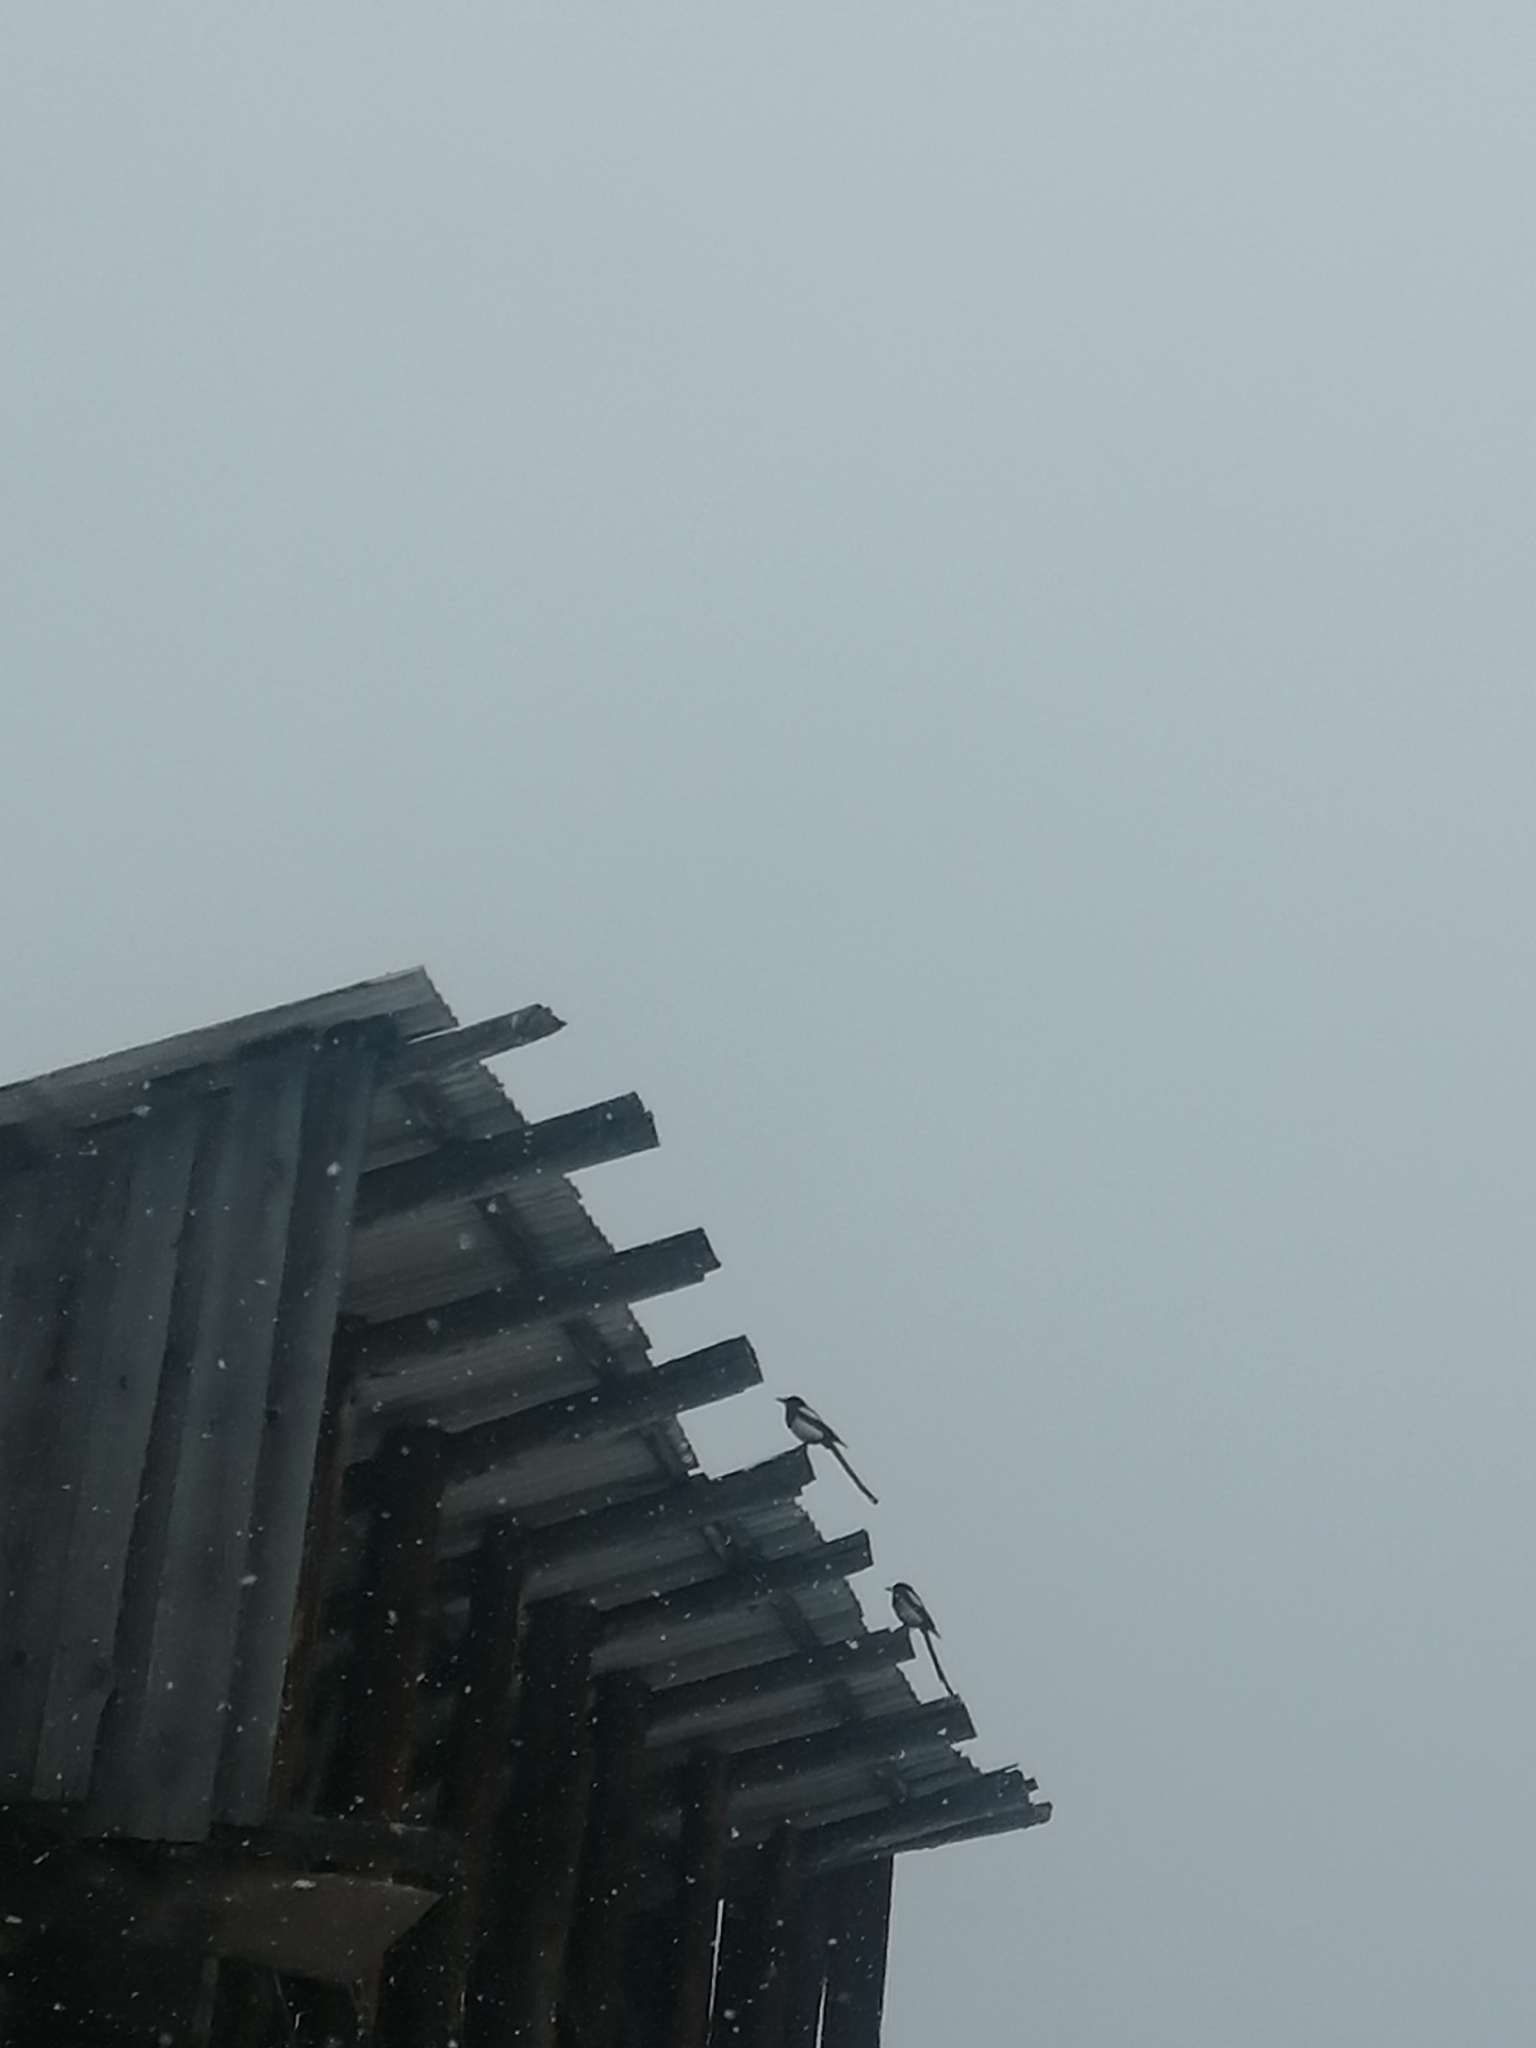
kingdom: Animalia
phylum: Chordata
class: Aves
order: Passeriformes
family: Corvidae
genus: Pica
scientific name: Pica pica
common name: Eurasian magpie
